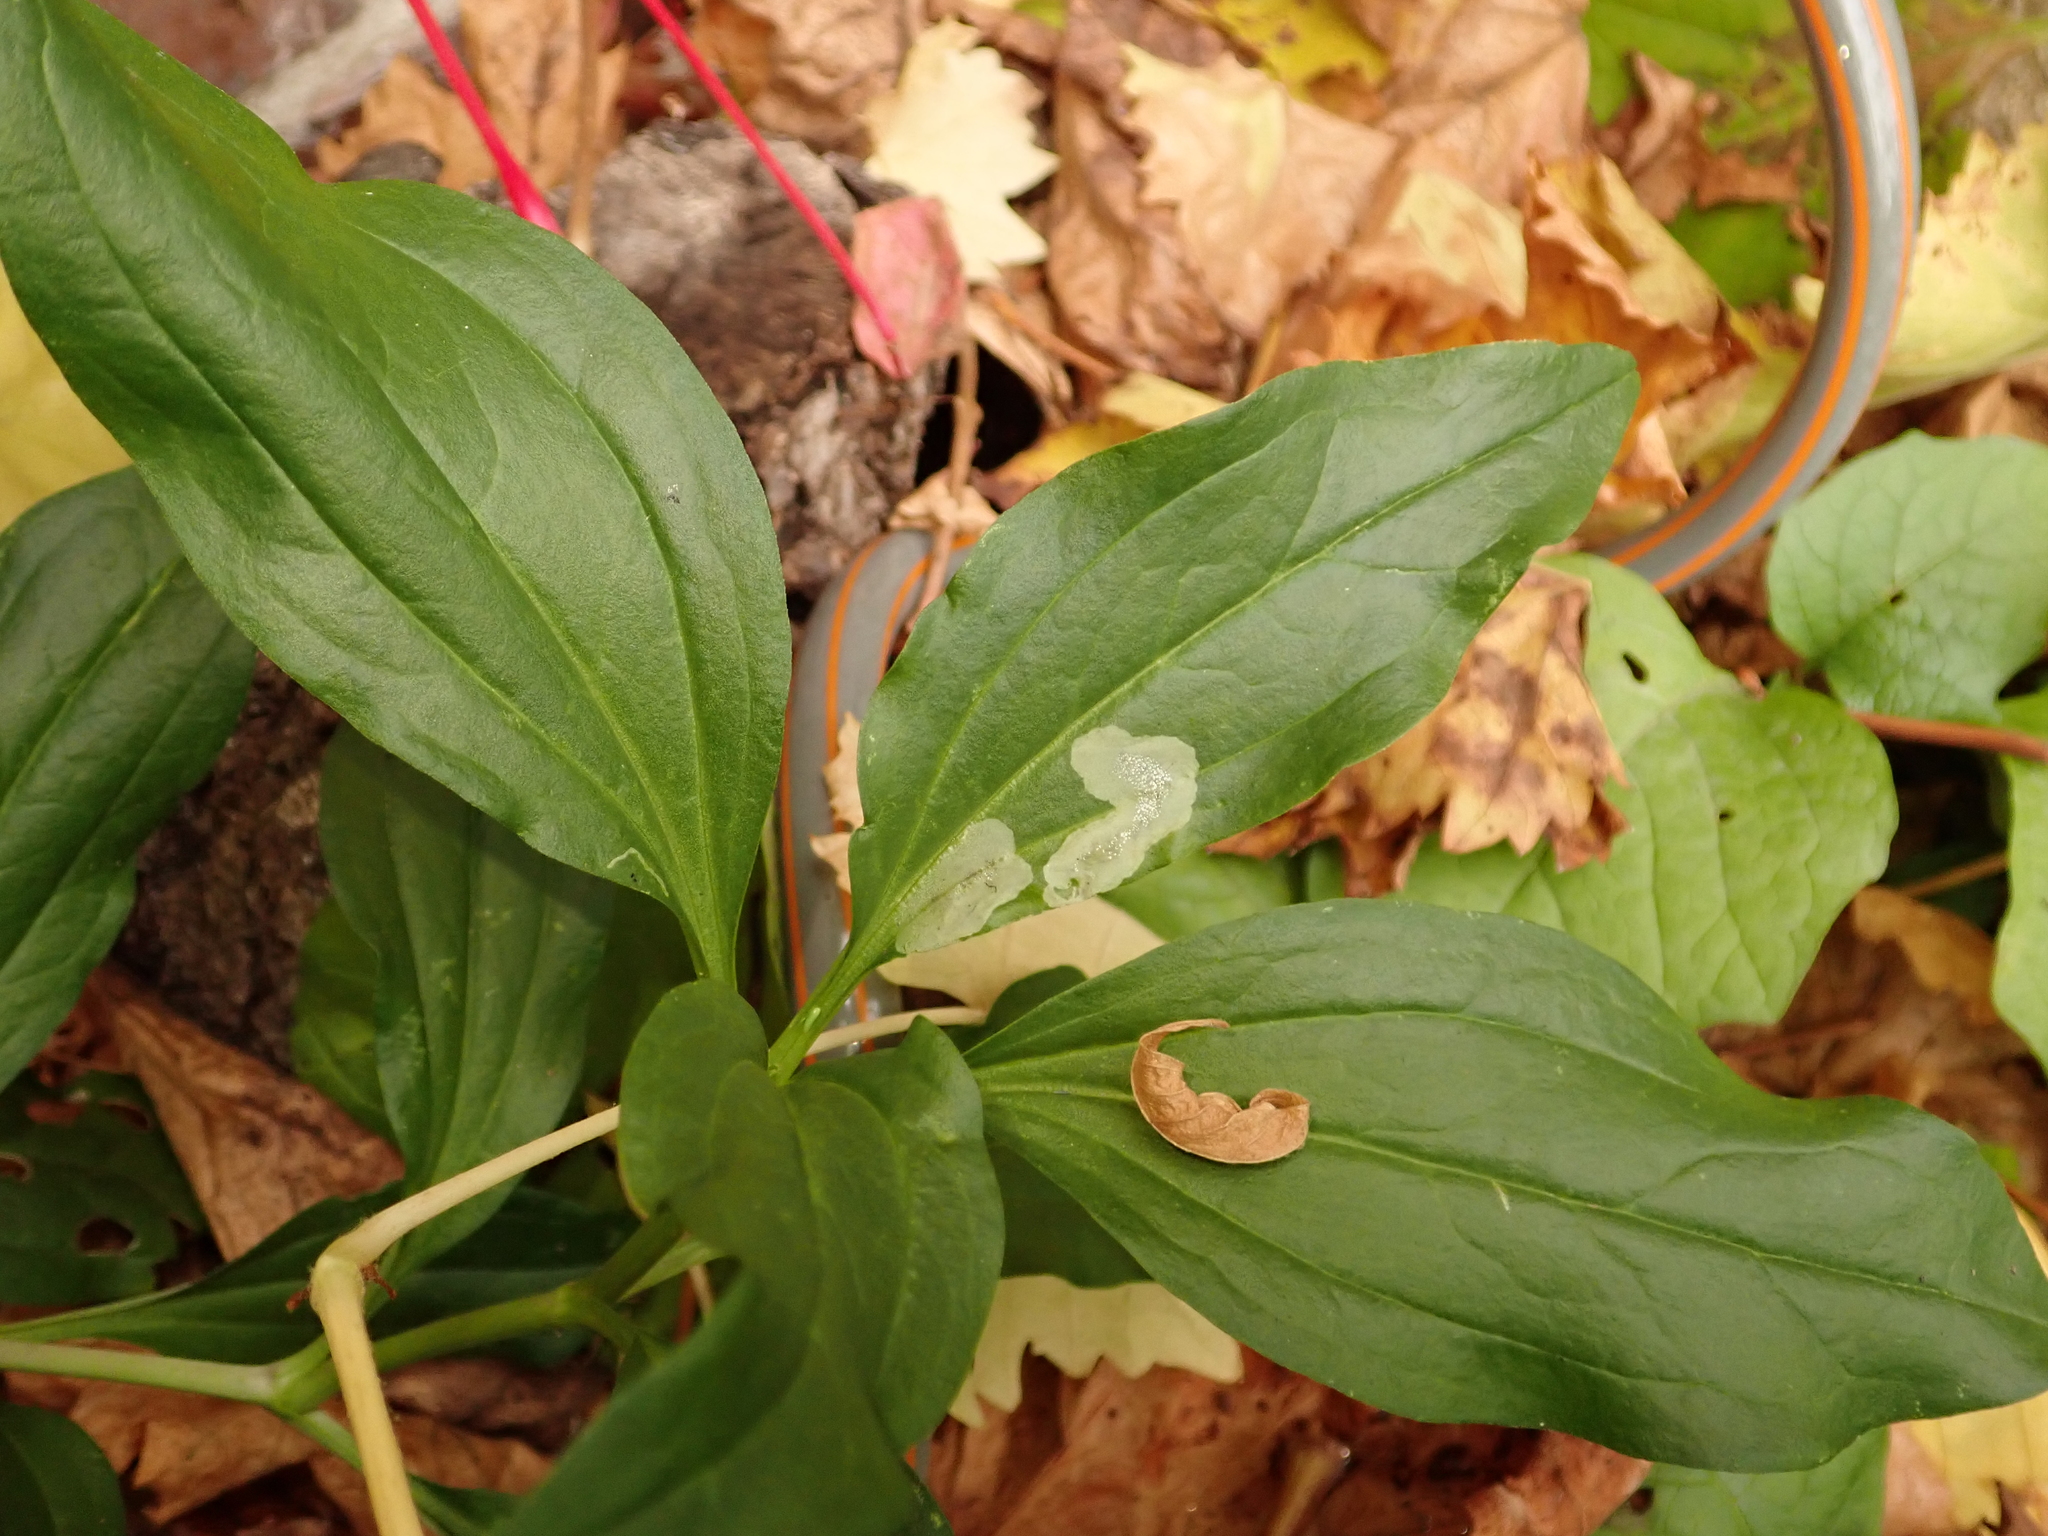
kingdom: Plantae
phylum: Tracheophyta
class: Magnoliopsida
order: Caryophyllales
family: Caryophyllaceae
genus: Saponaria
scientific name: Saponaria officinalis
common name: Soapwort
